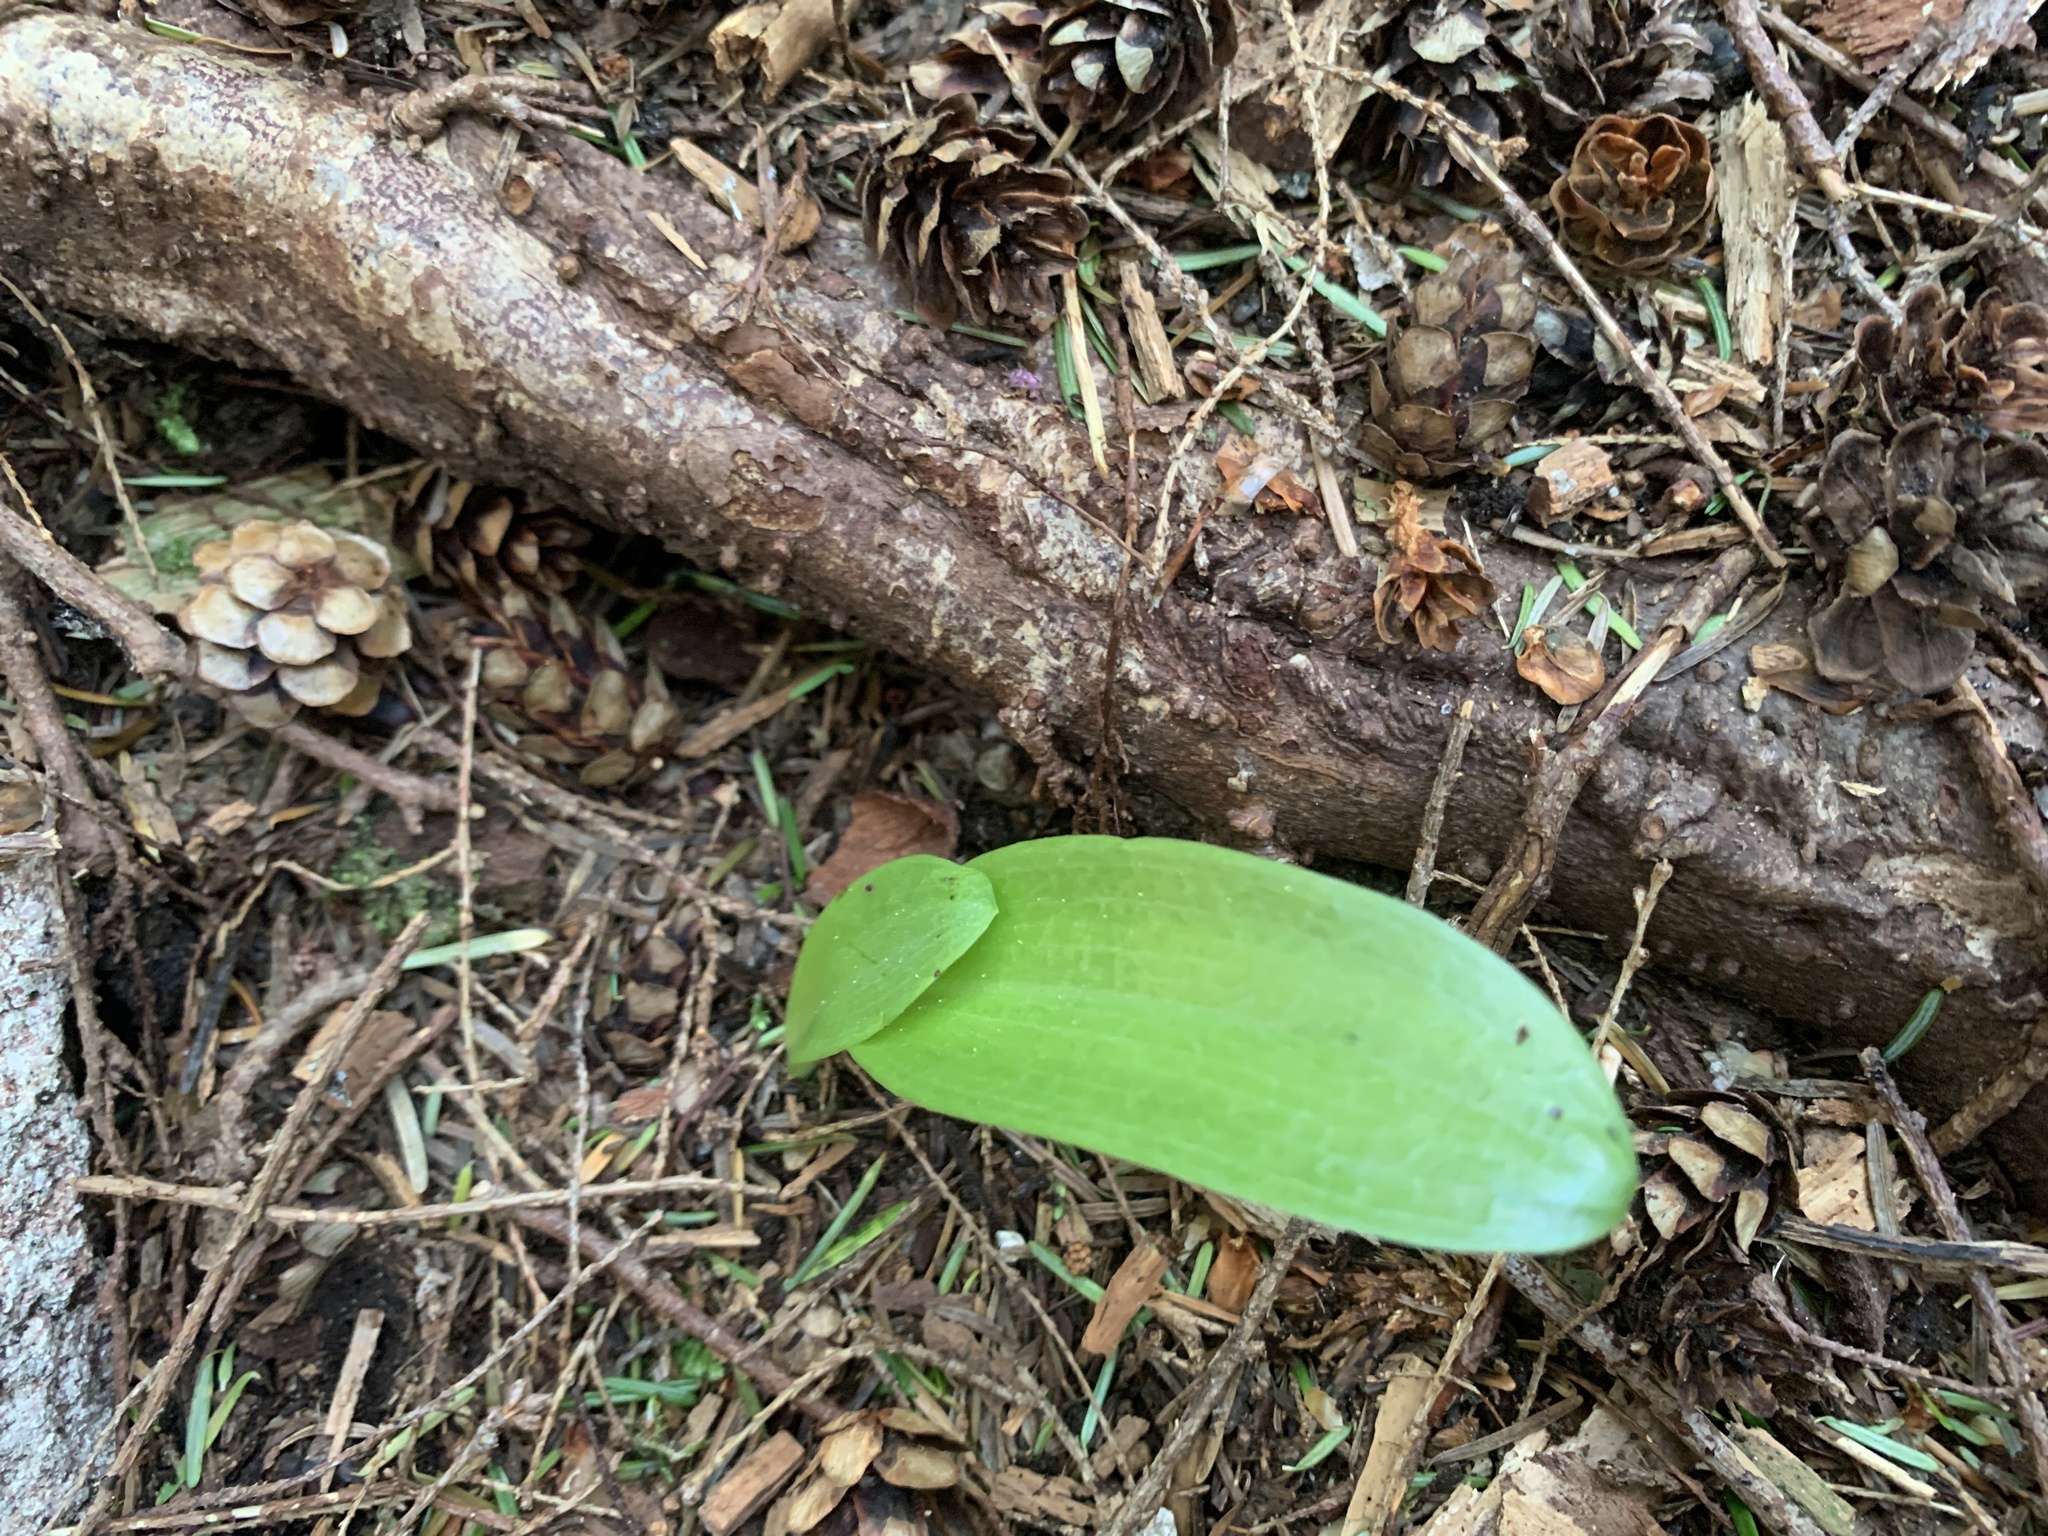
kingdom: Plantae
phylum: Tracheophyta
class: Liliopsida
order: Liliales
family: Liliaceae
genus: Clintonia
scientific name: Clintonia uniflora
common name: Queen's cup
